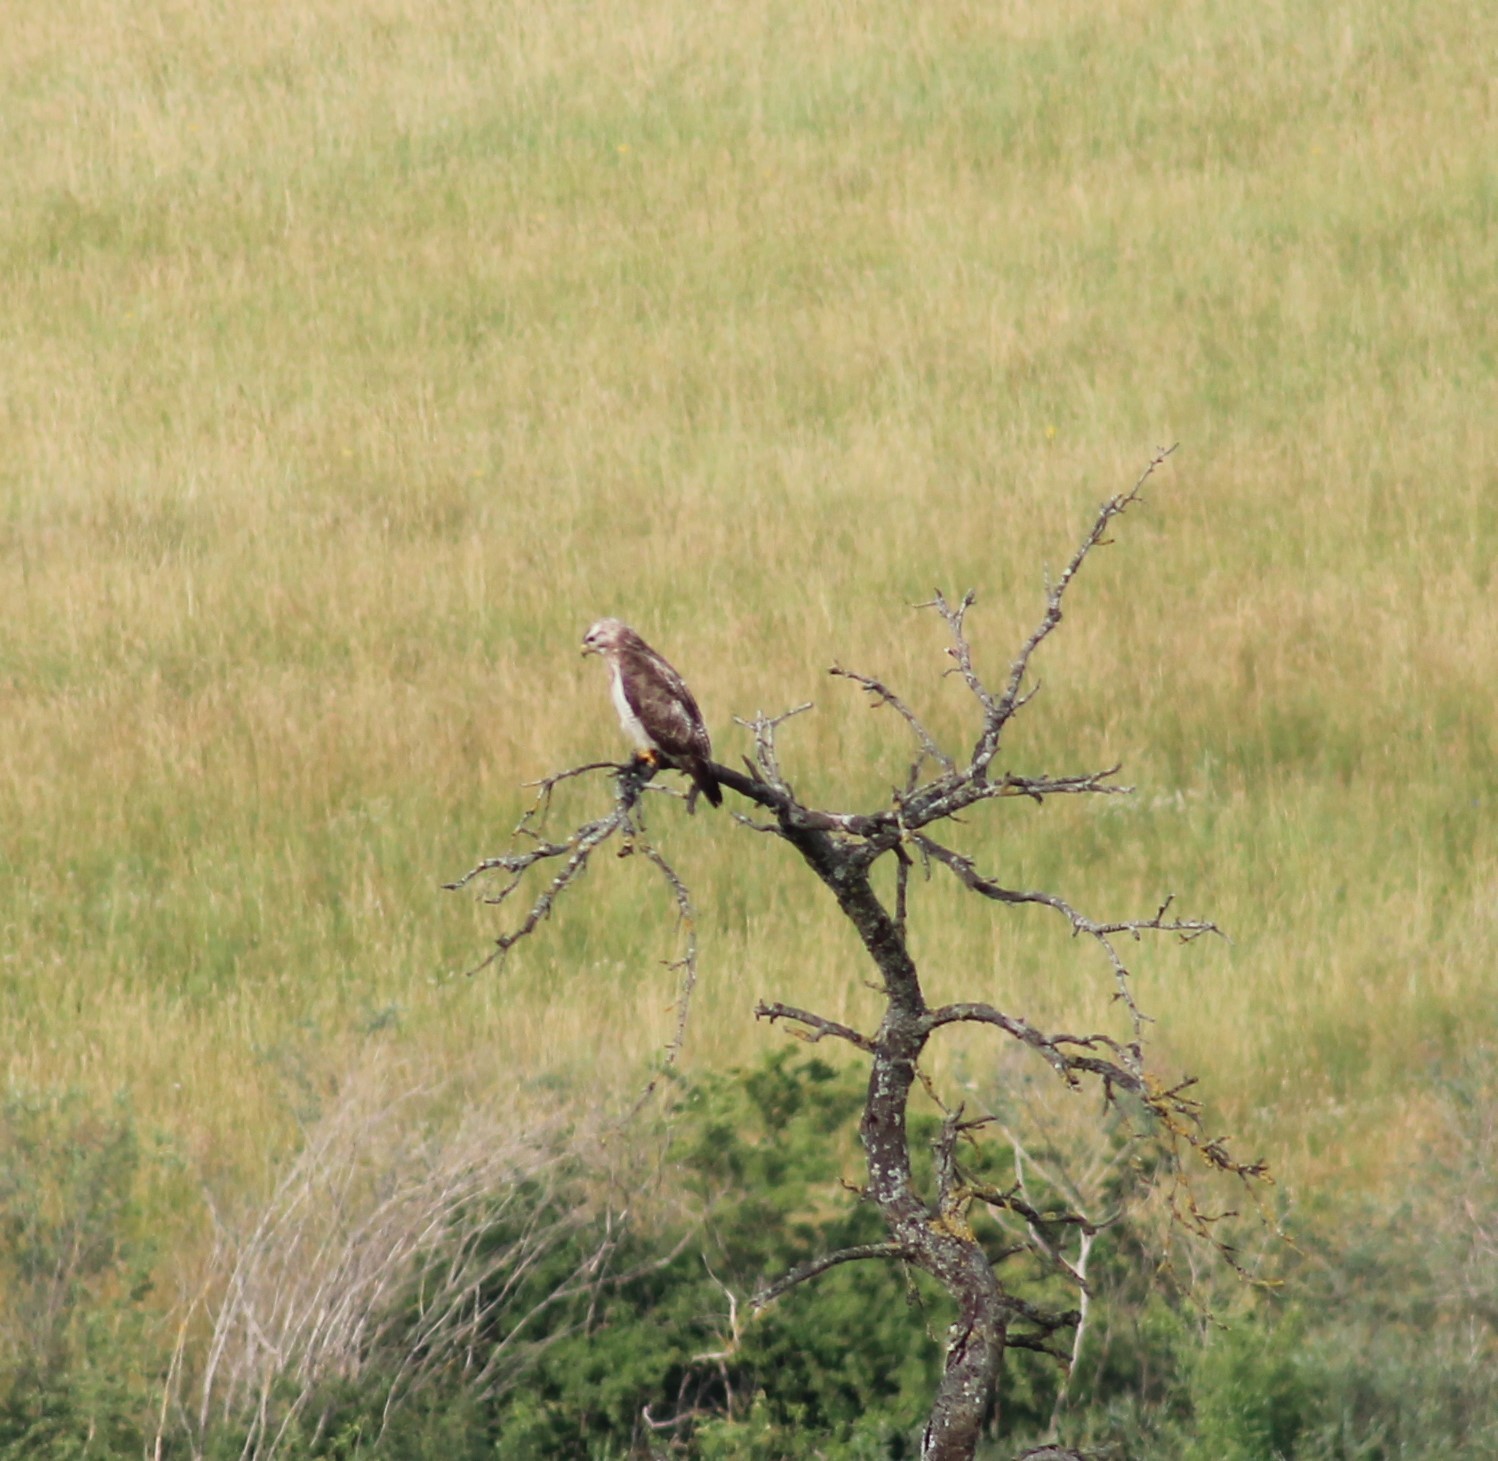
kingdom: Animalia
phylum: Chordata
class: Aves
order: Accipitriformes
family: Accipitridae
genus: Buteo
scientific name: Buteo buteo
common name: Common buzzard
